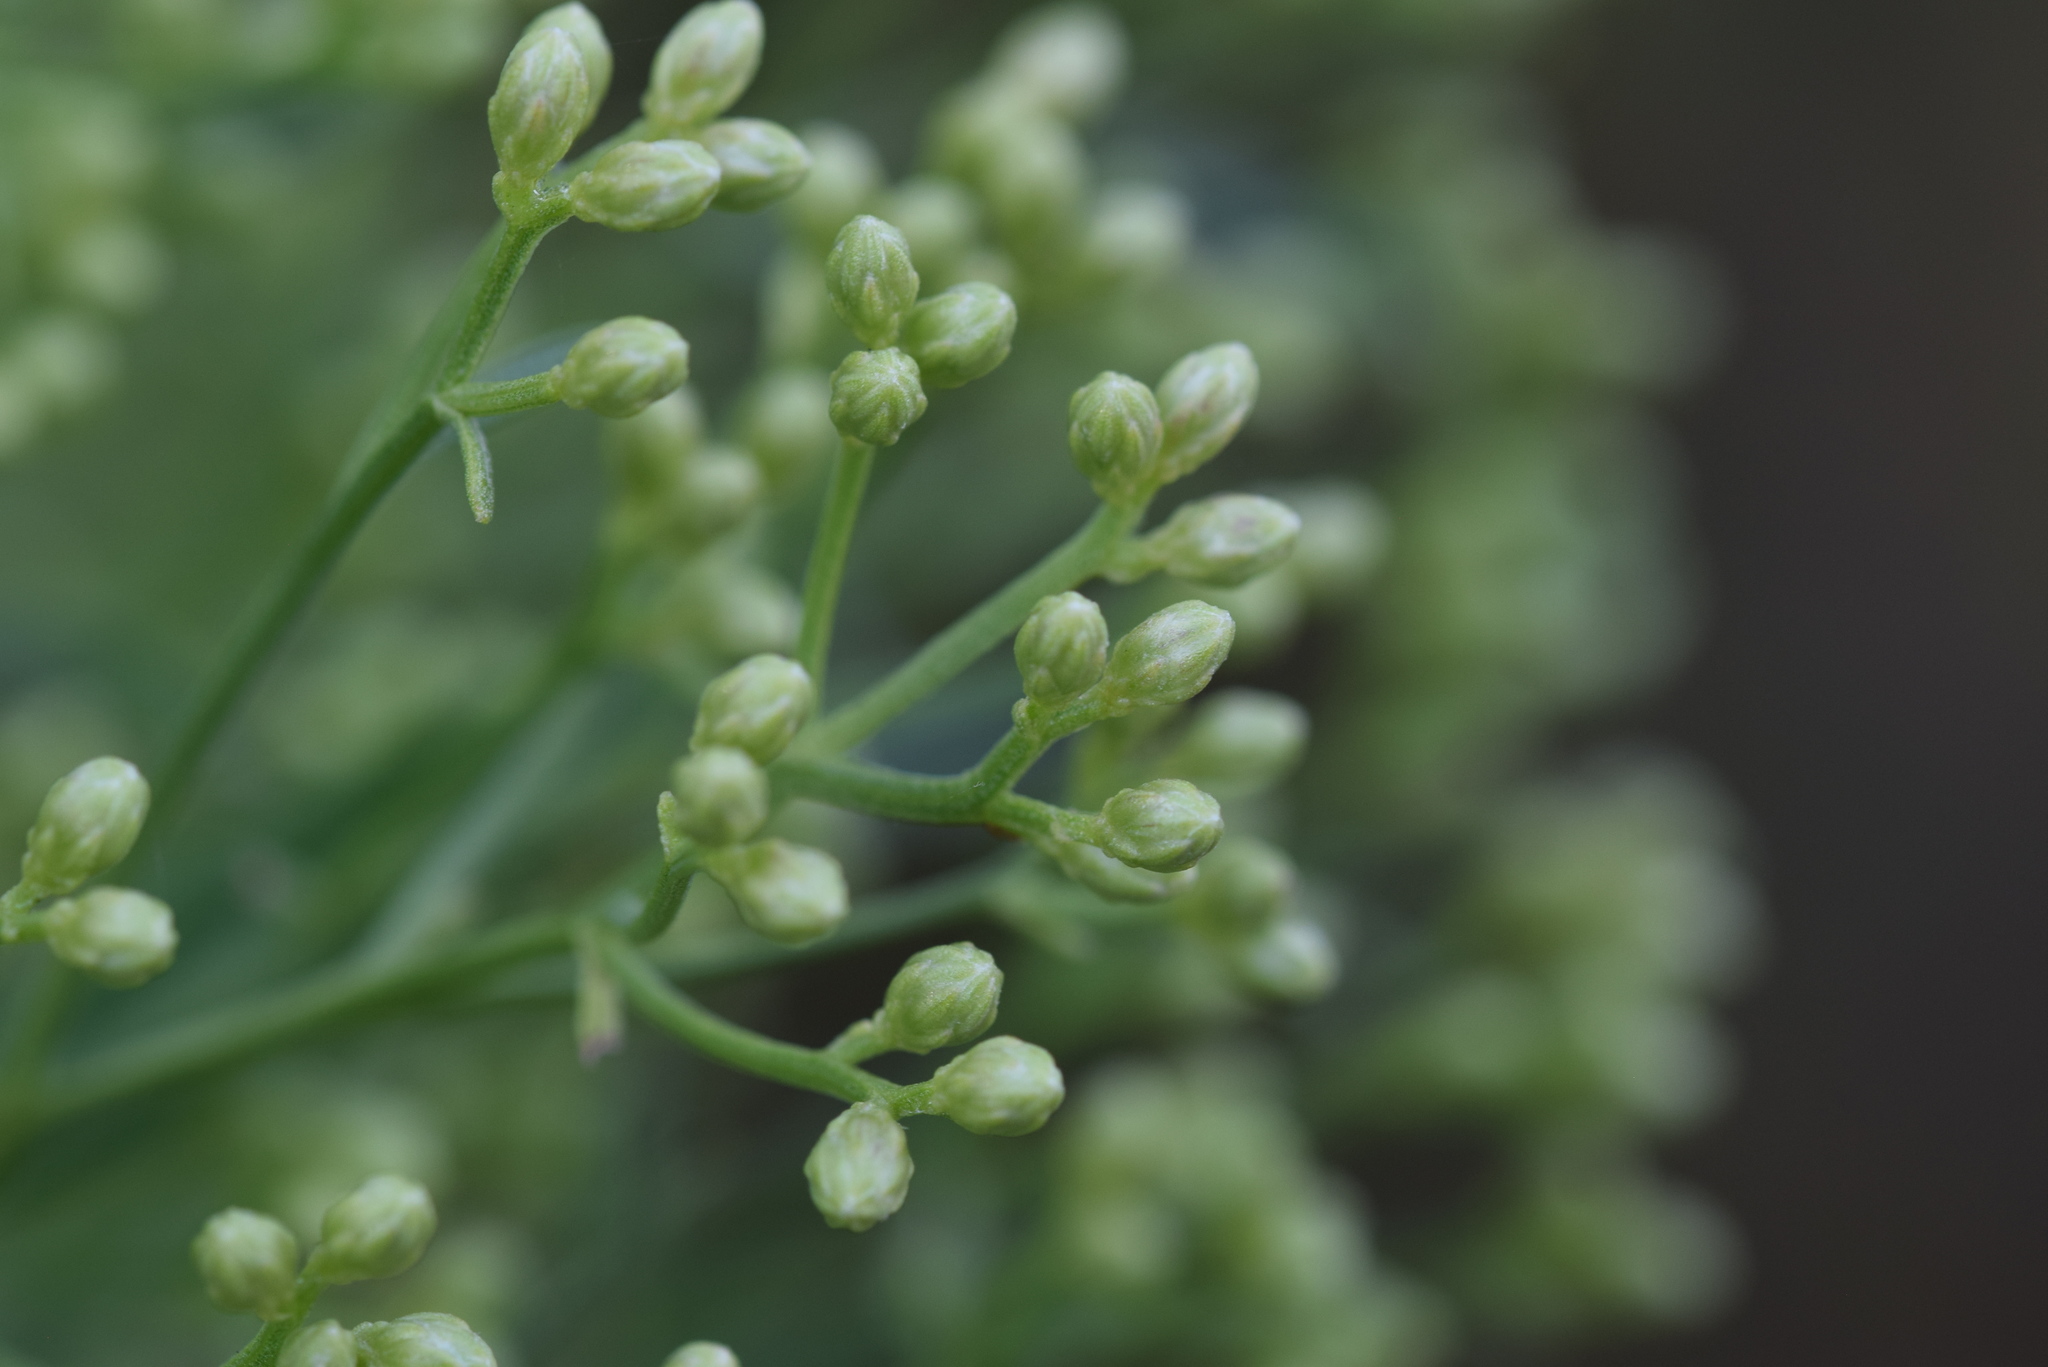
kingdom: Plantae
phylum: Tracheophyta
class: Magnoliopsida
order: Asterales
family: Asteraceae
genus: Baccharis
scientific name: Baccharis halimifolia
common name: Eastern baccharis
